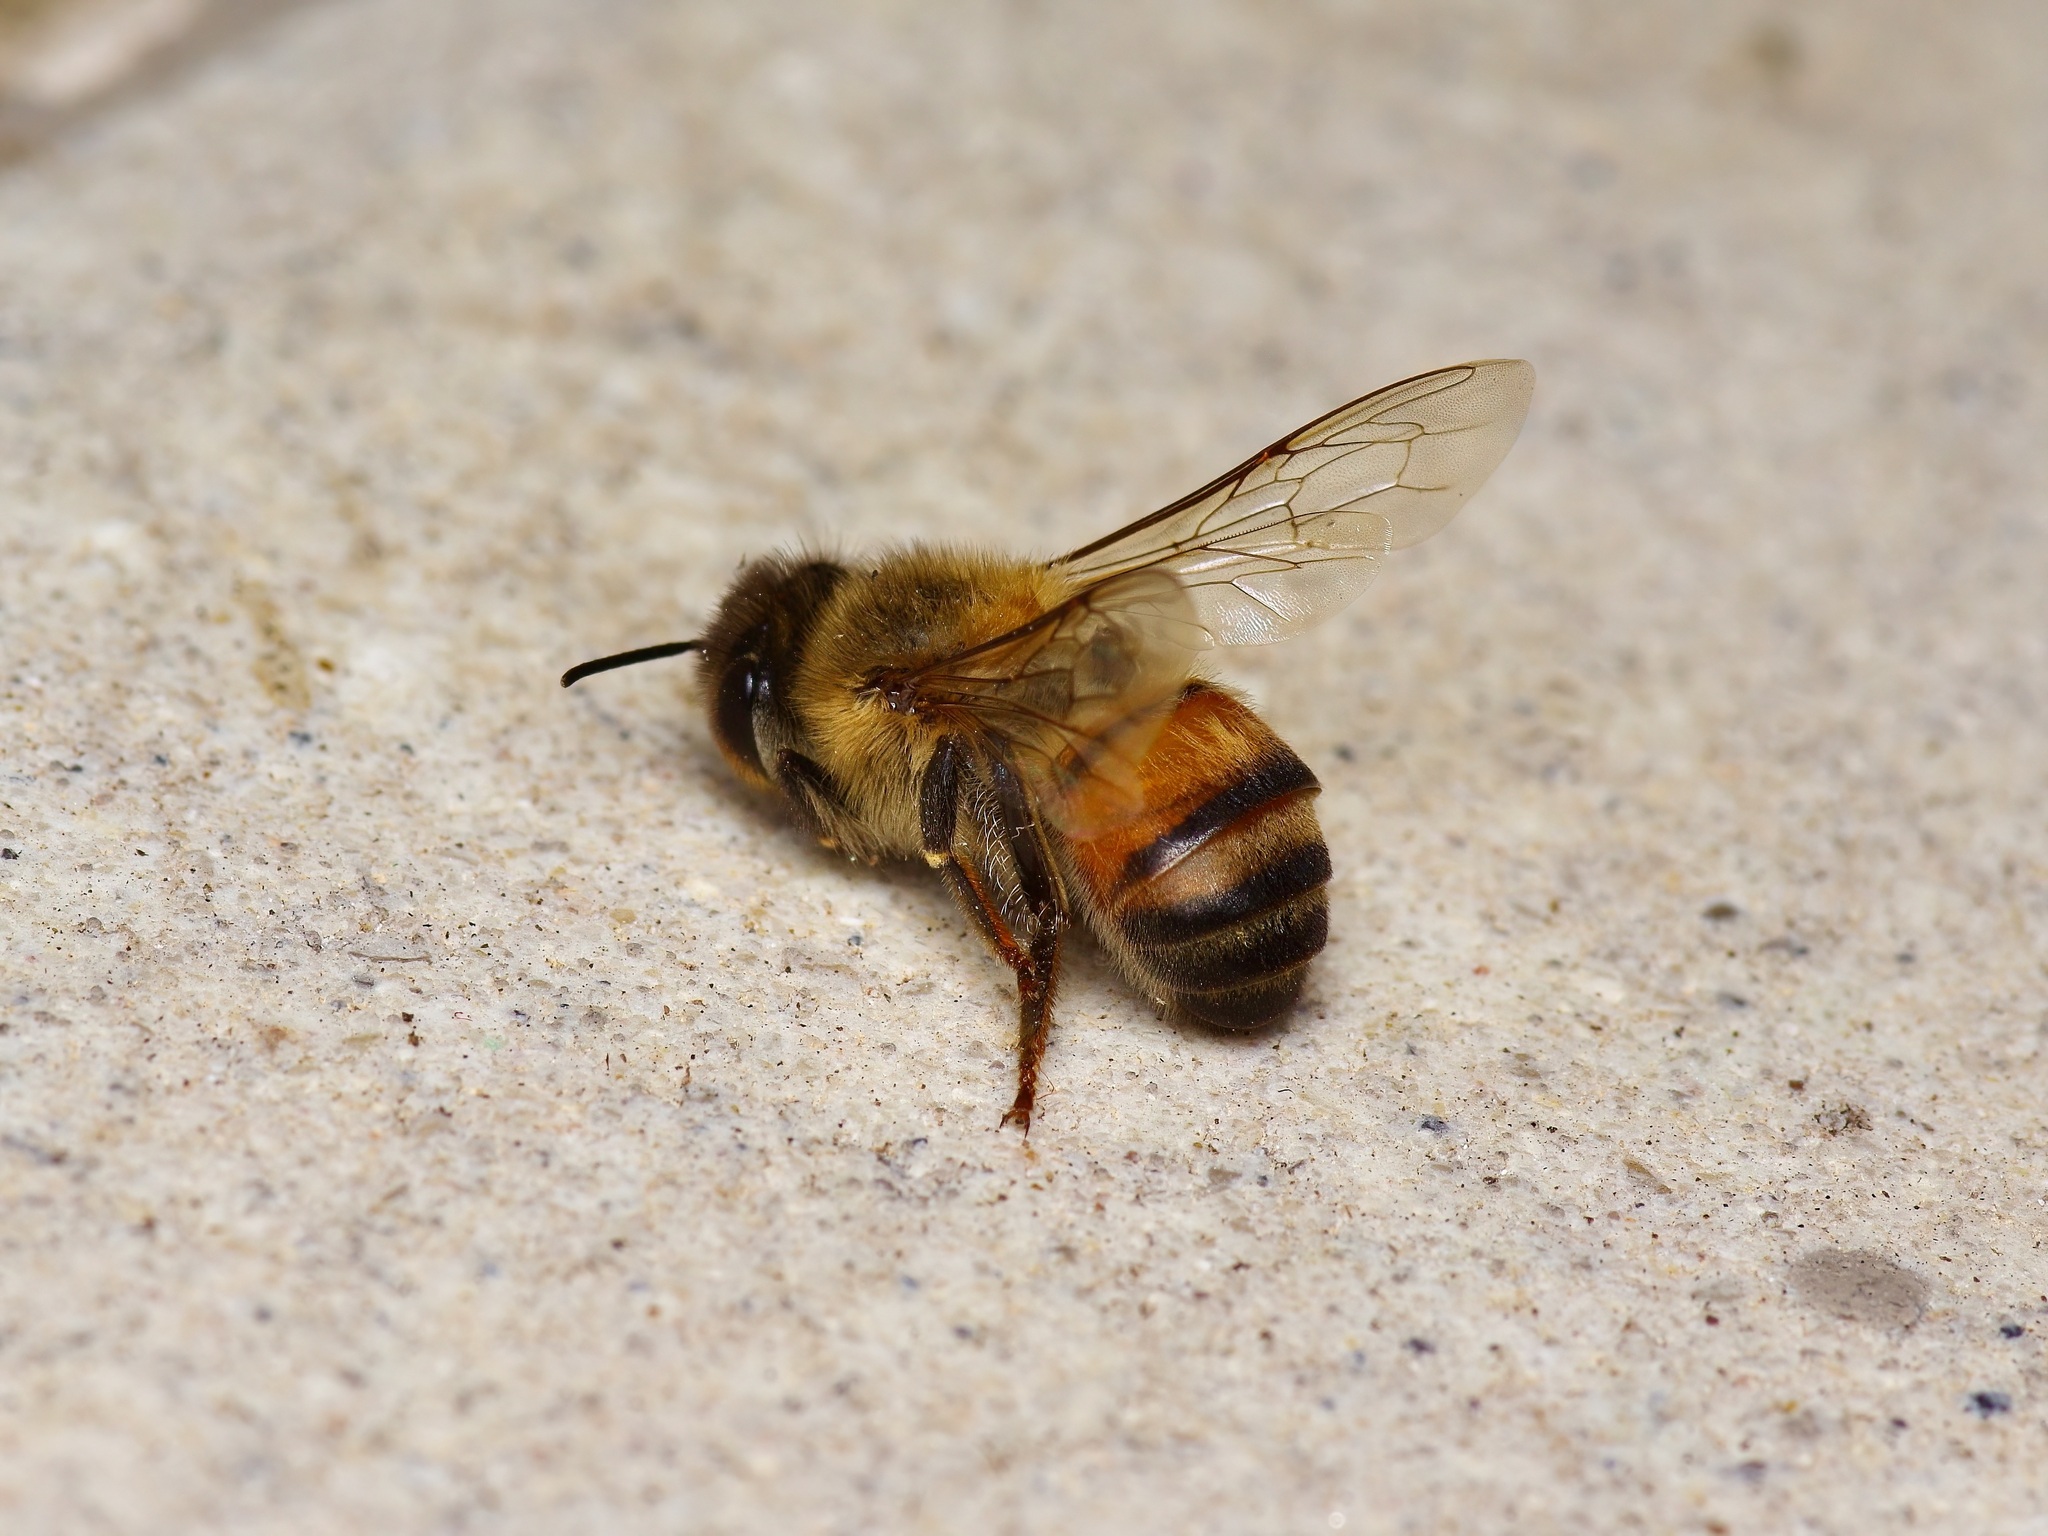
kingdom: Animalia
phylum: Arthropoda
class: Insecta
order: Hymenoptera
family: Apidae
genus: Apis
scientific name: Apis mellifera
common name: Honey bee
